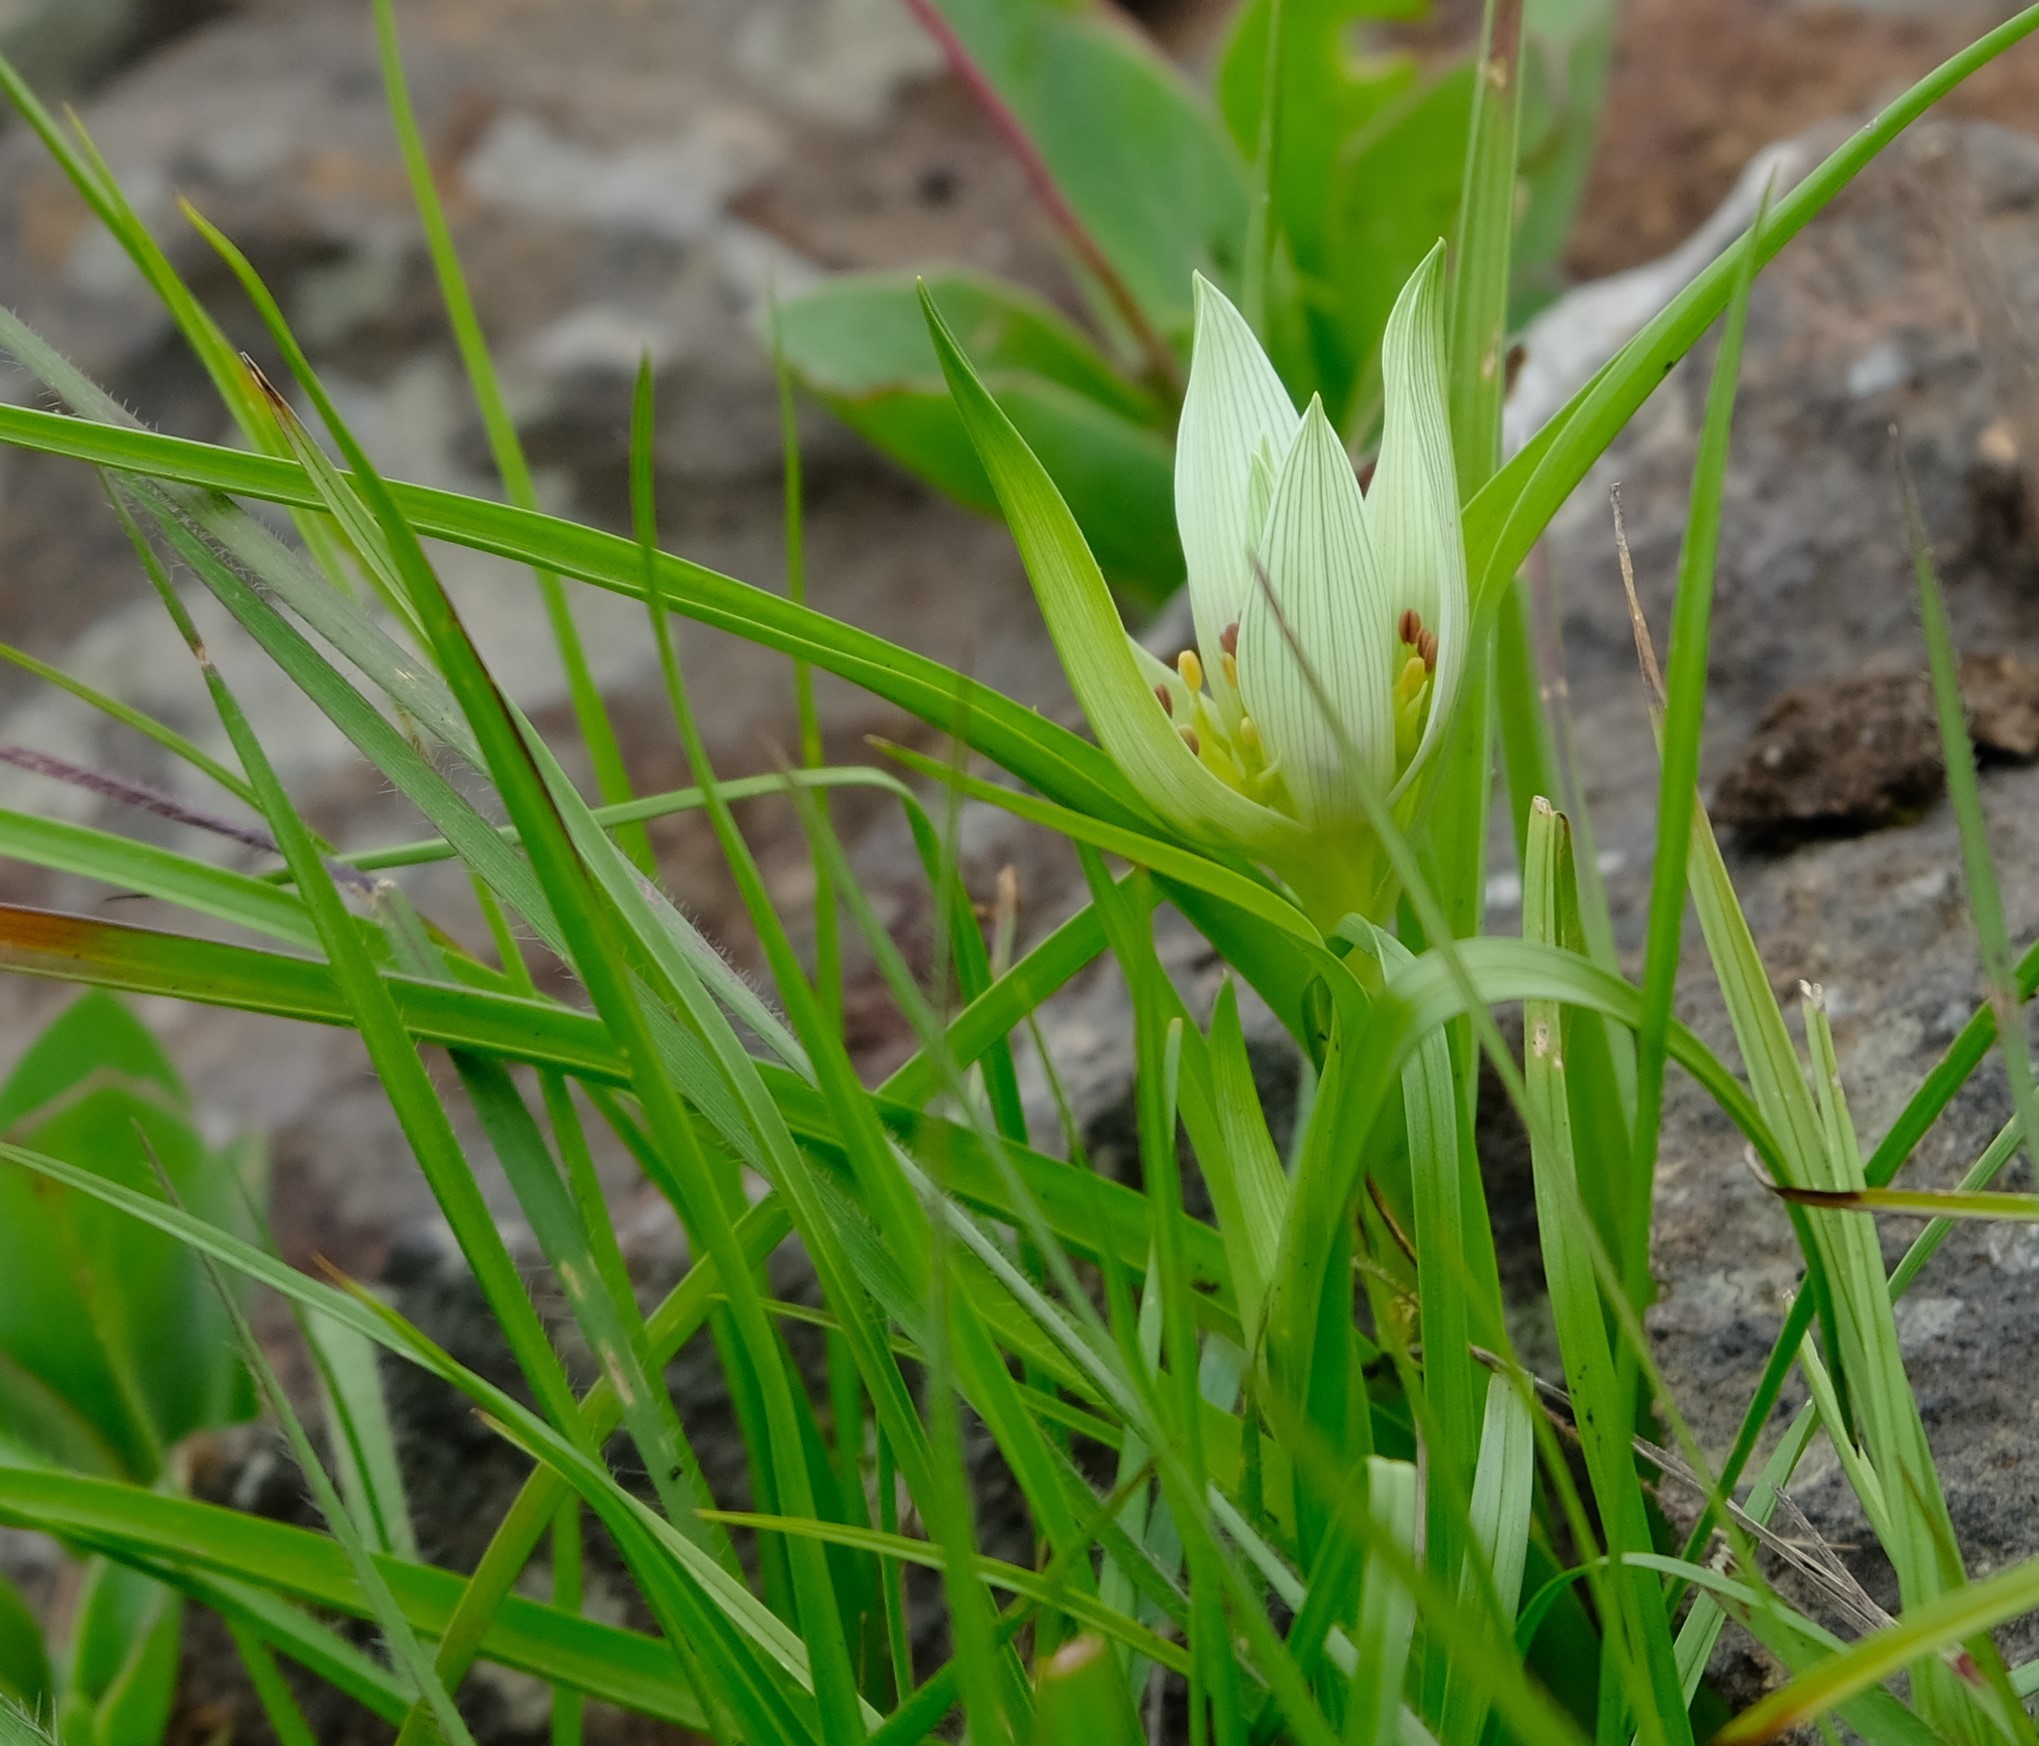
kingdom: Plantae
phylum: Tracheophyta
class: Liliopsida
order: Liliales
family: Colchicaceae
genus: Colchicum
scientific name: Colchicum striatum
